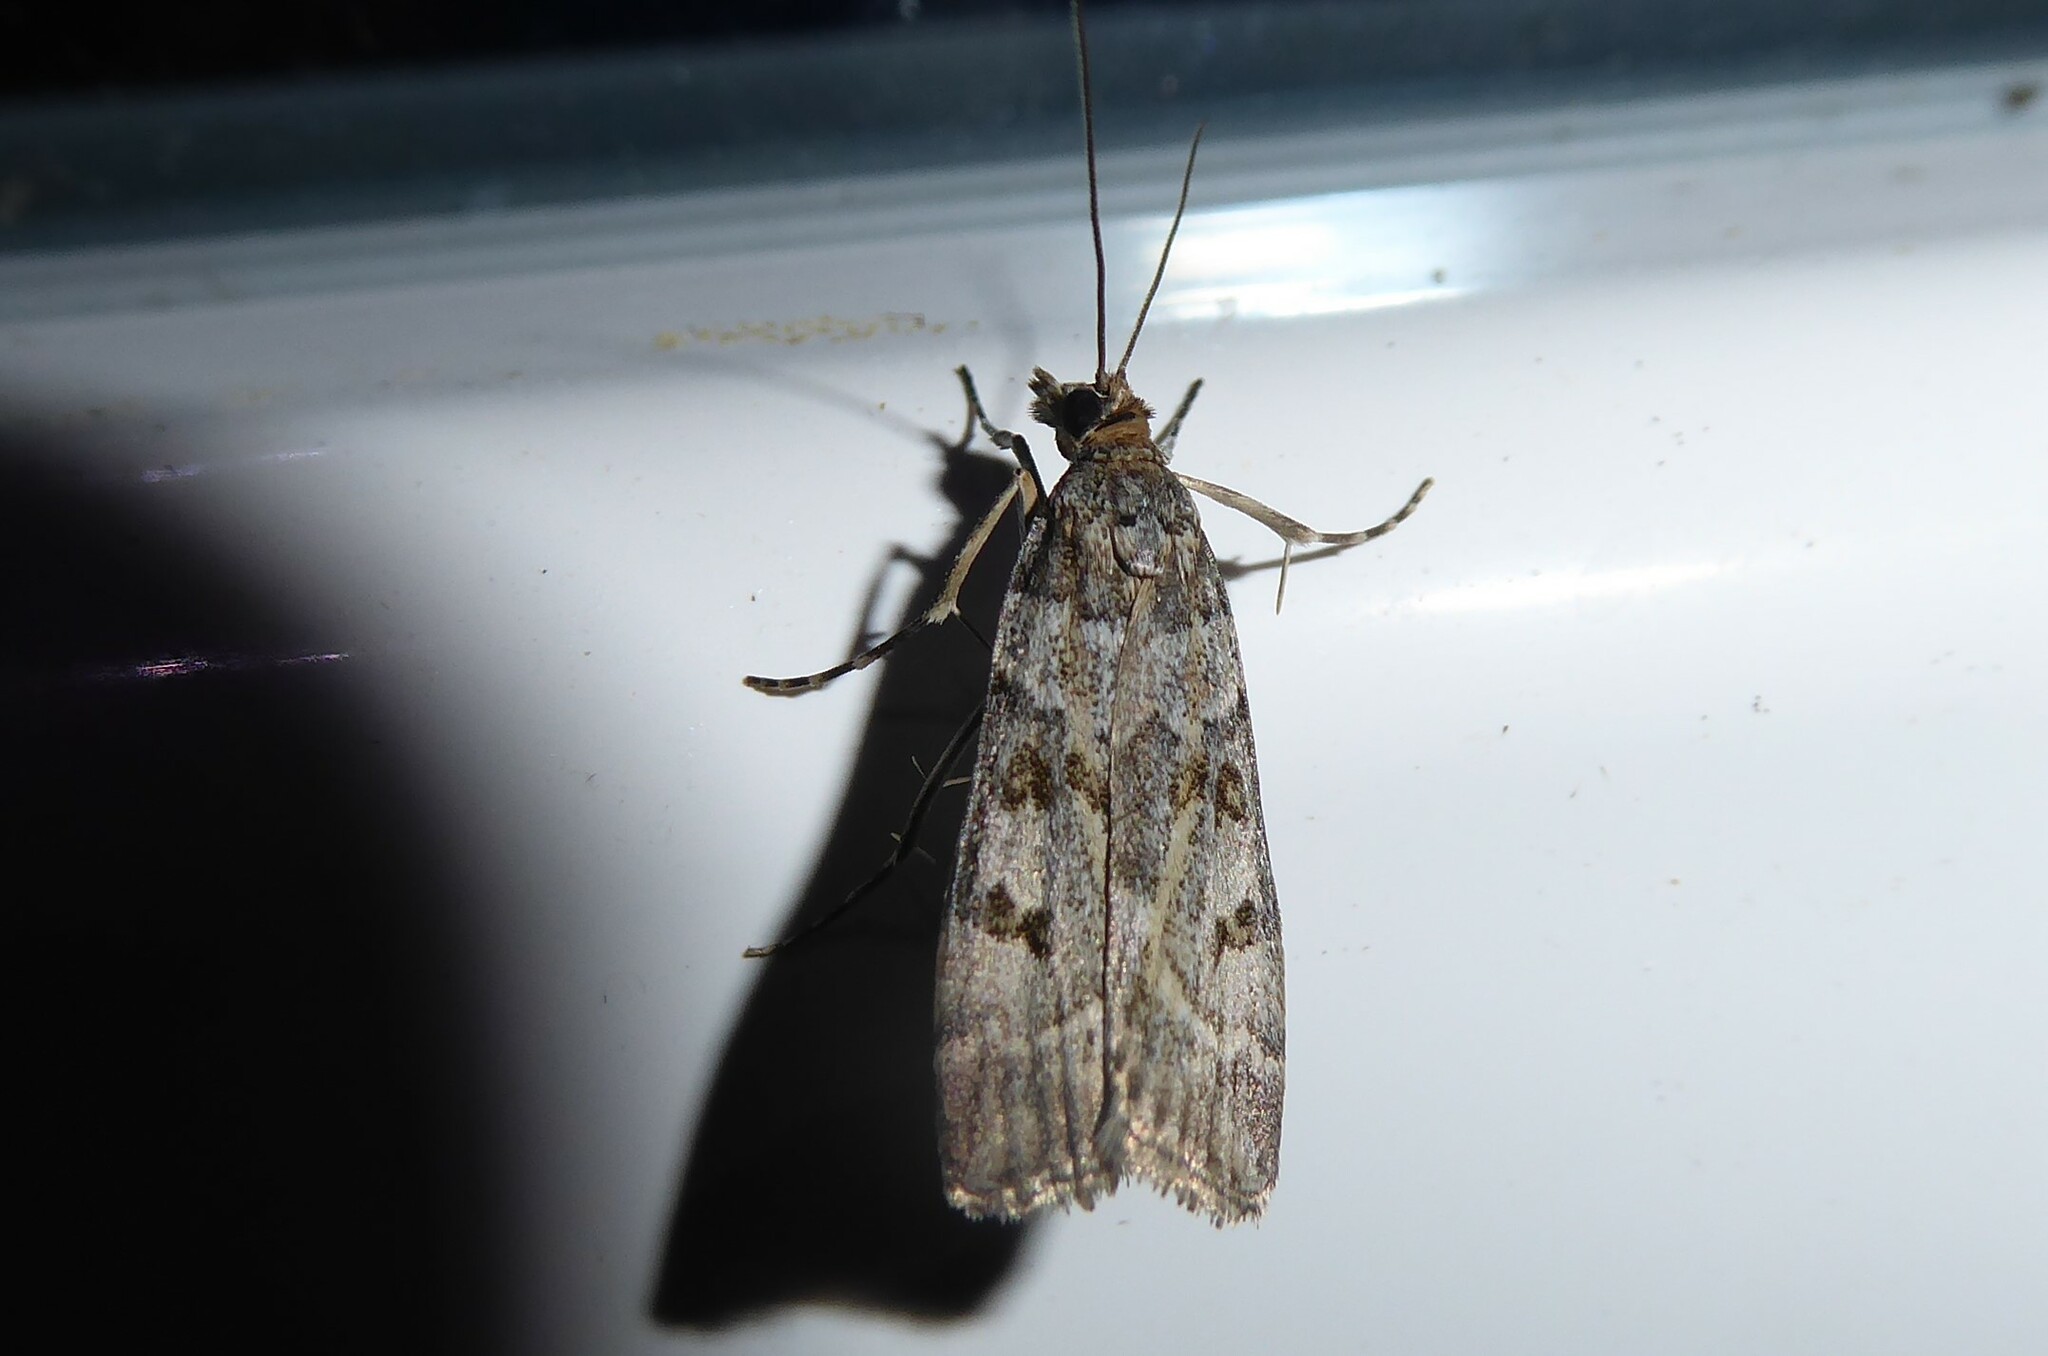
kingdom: Animalia
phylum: Arthropoda
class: Insecta
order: Lepidoptera
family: Crambidae
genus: Scoparia
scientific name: Scoparia tetracycla
